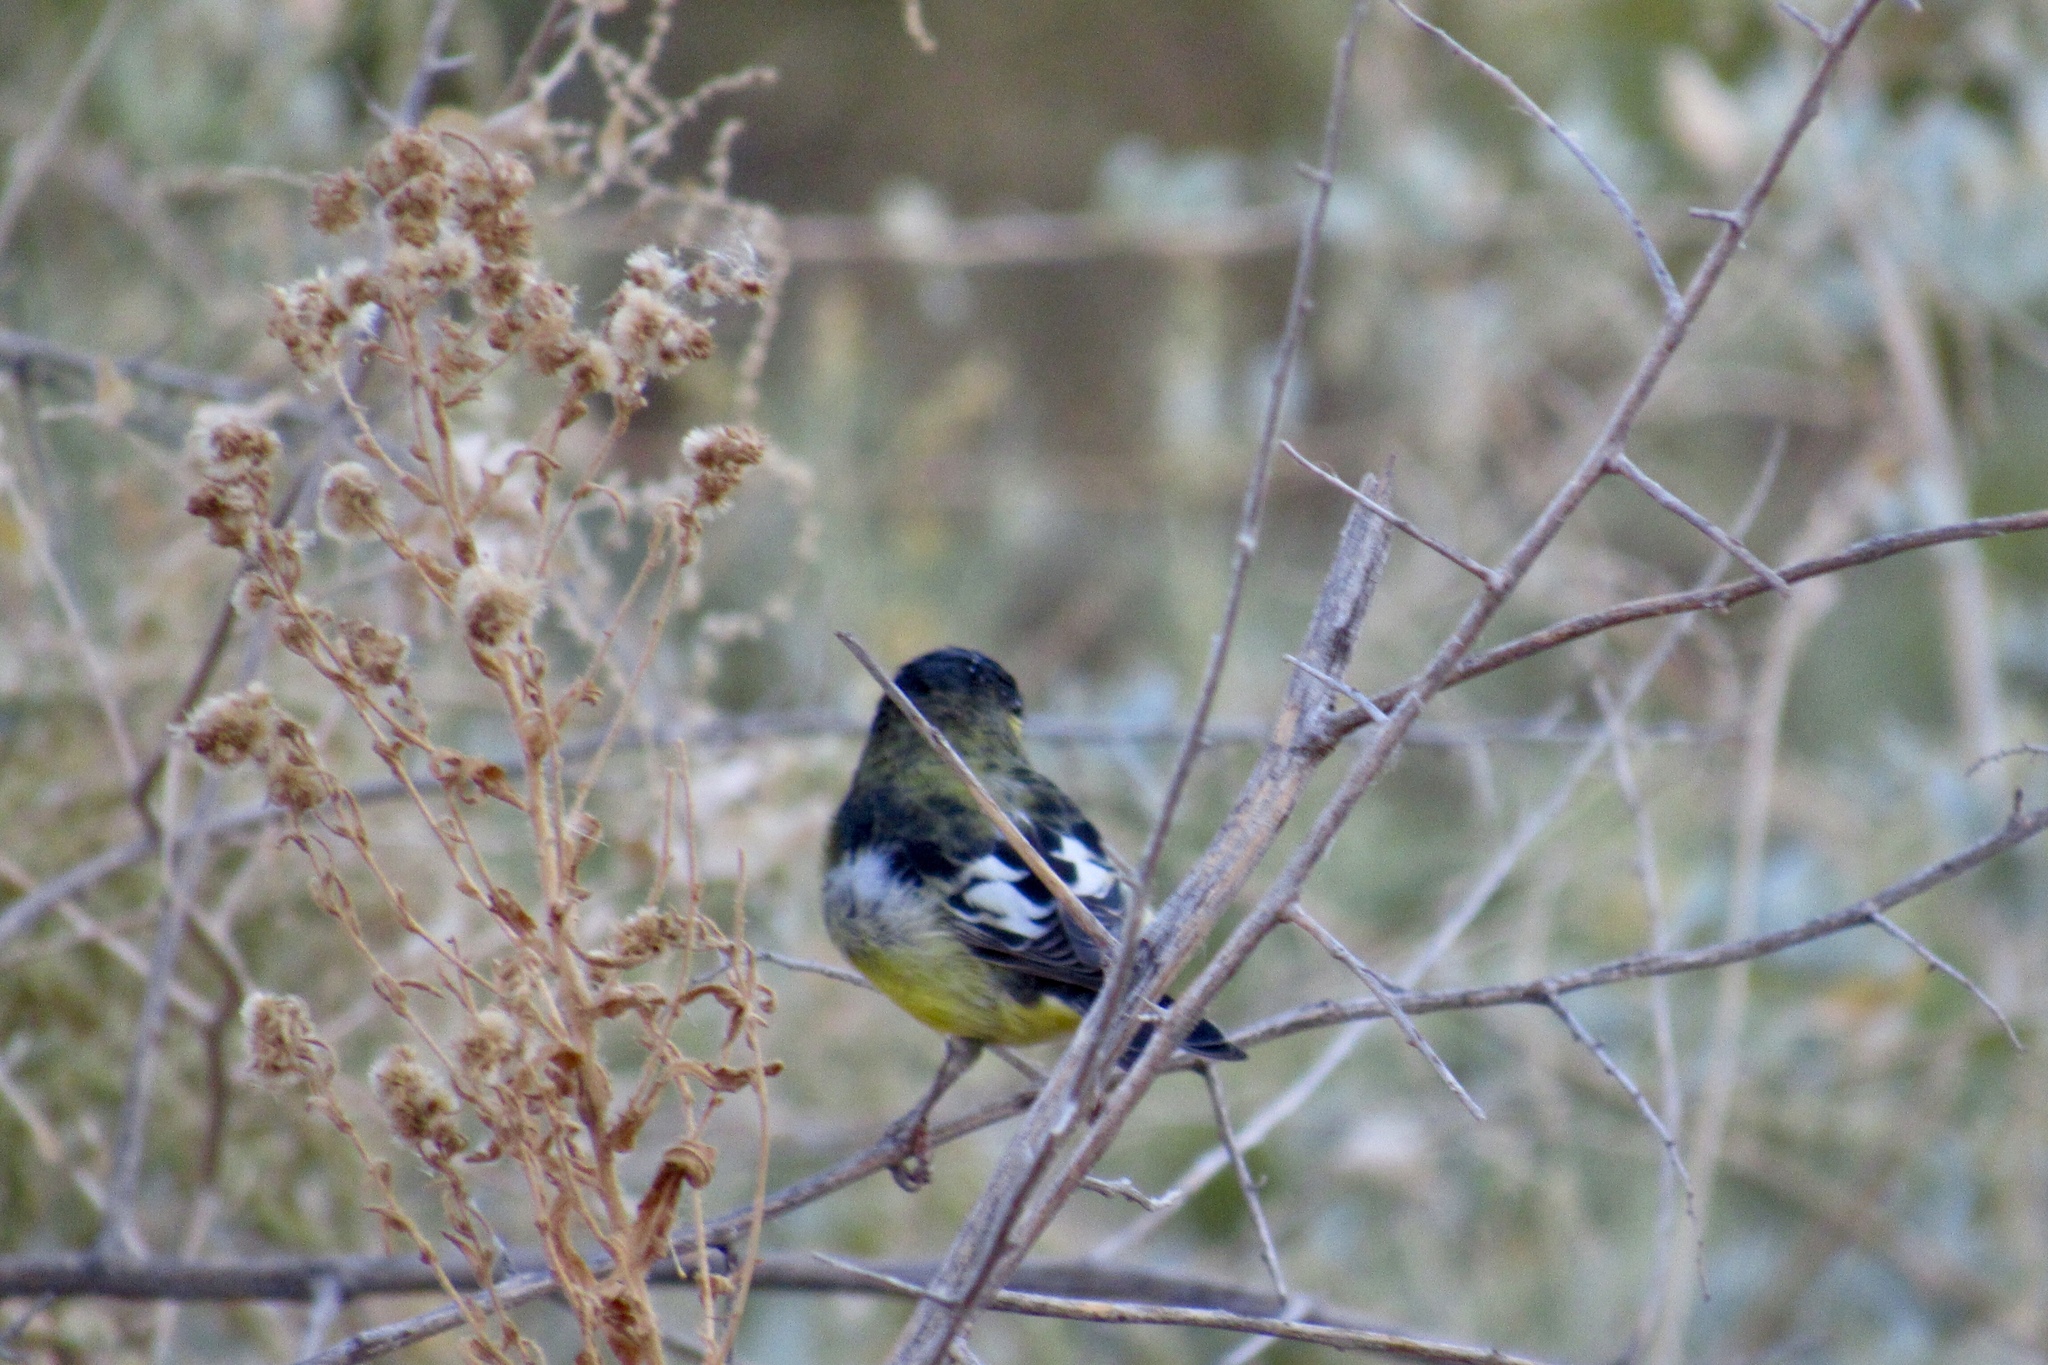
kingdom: Animalia
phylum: Chordata
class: Aves
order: Passeriformes
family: Fringillidae
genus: Spinus
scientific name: Spinus psaltria
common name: Lesser goldfinch
